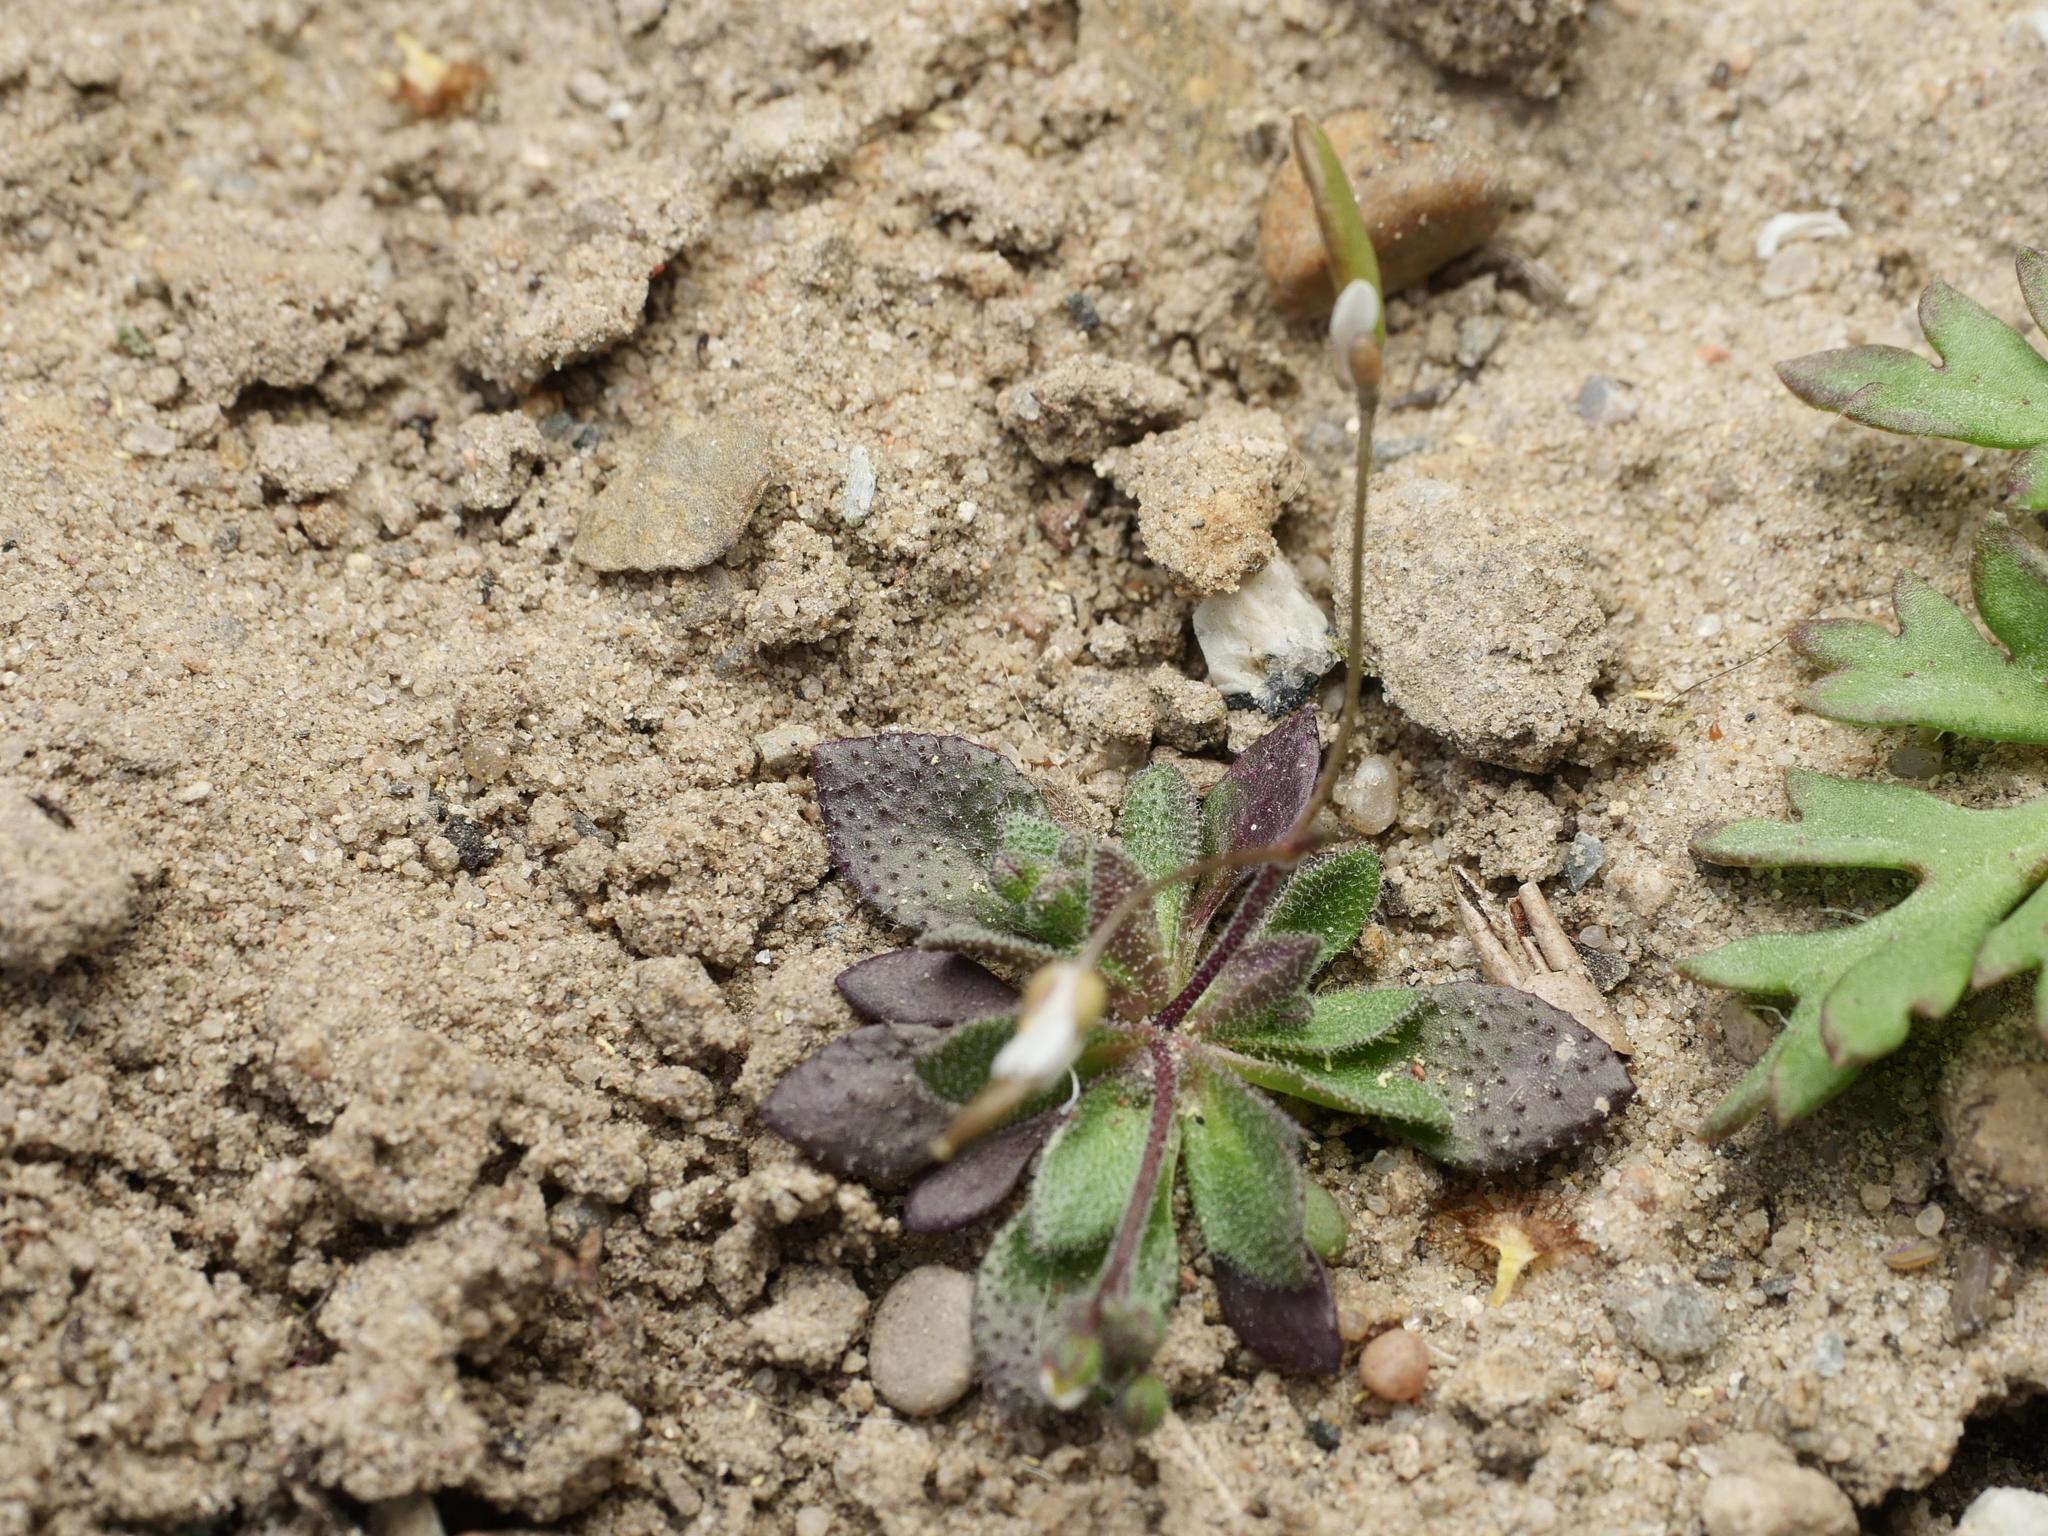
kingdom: Plantae
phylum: Tracheophyta
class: Magnoliopsida
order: Brassicales
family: Brassicaceae
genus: Draba
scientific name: Draba verna
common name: Spring draba
